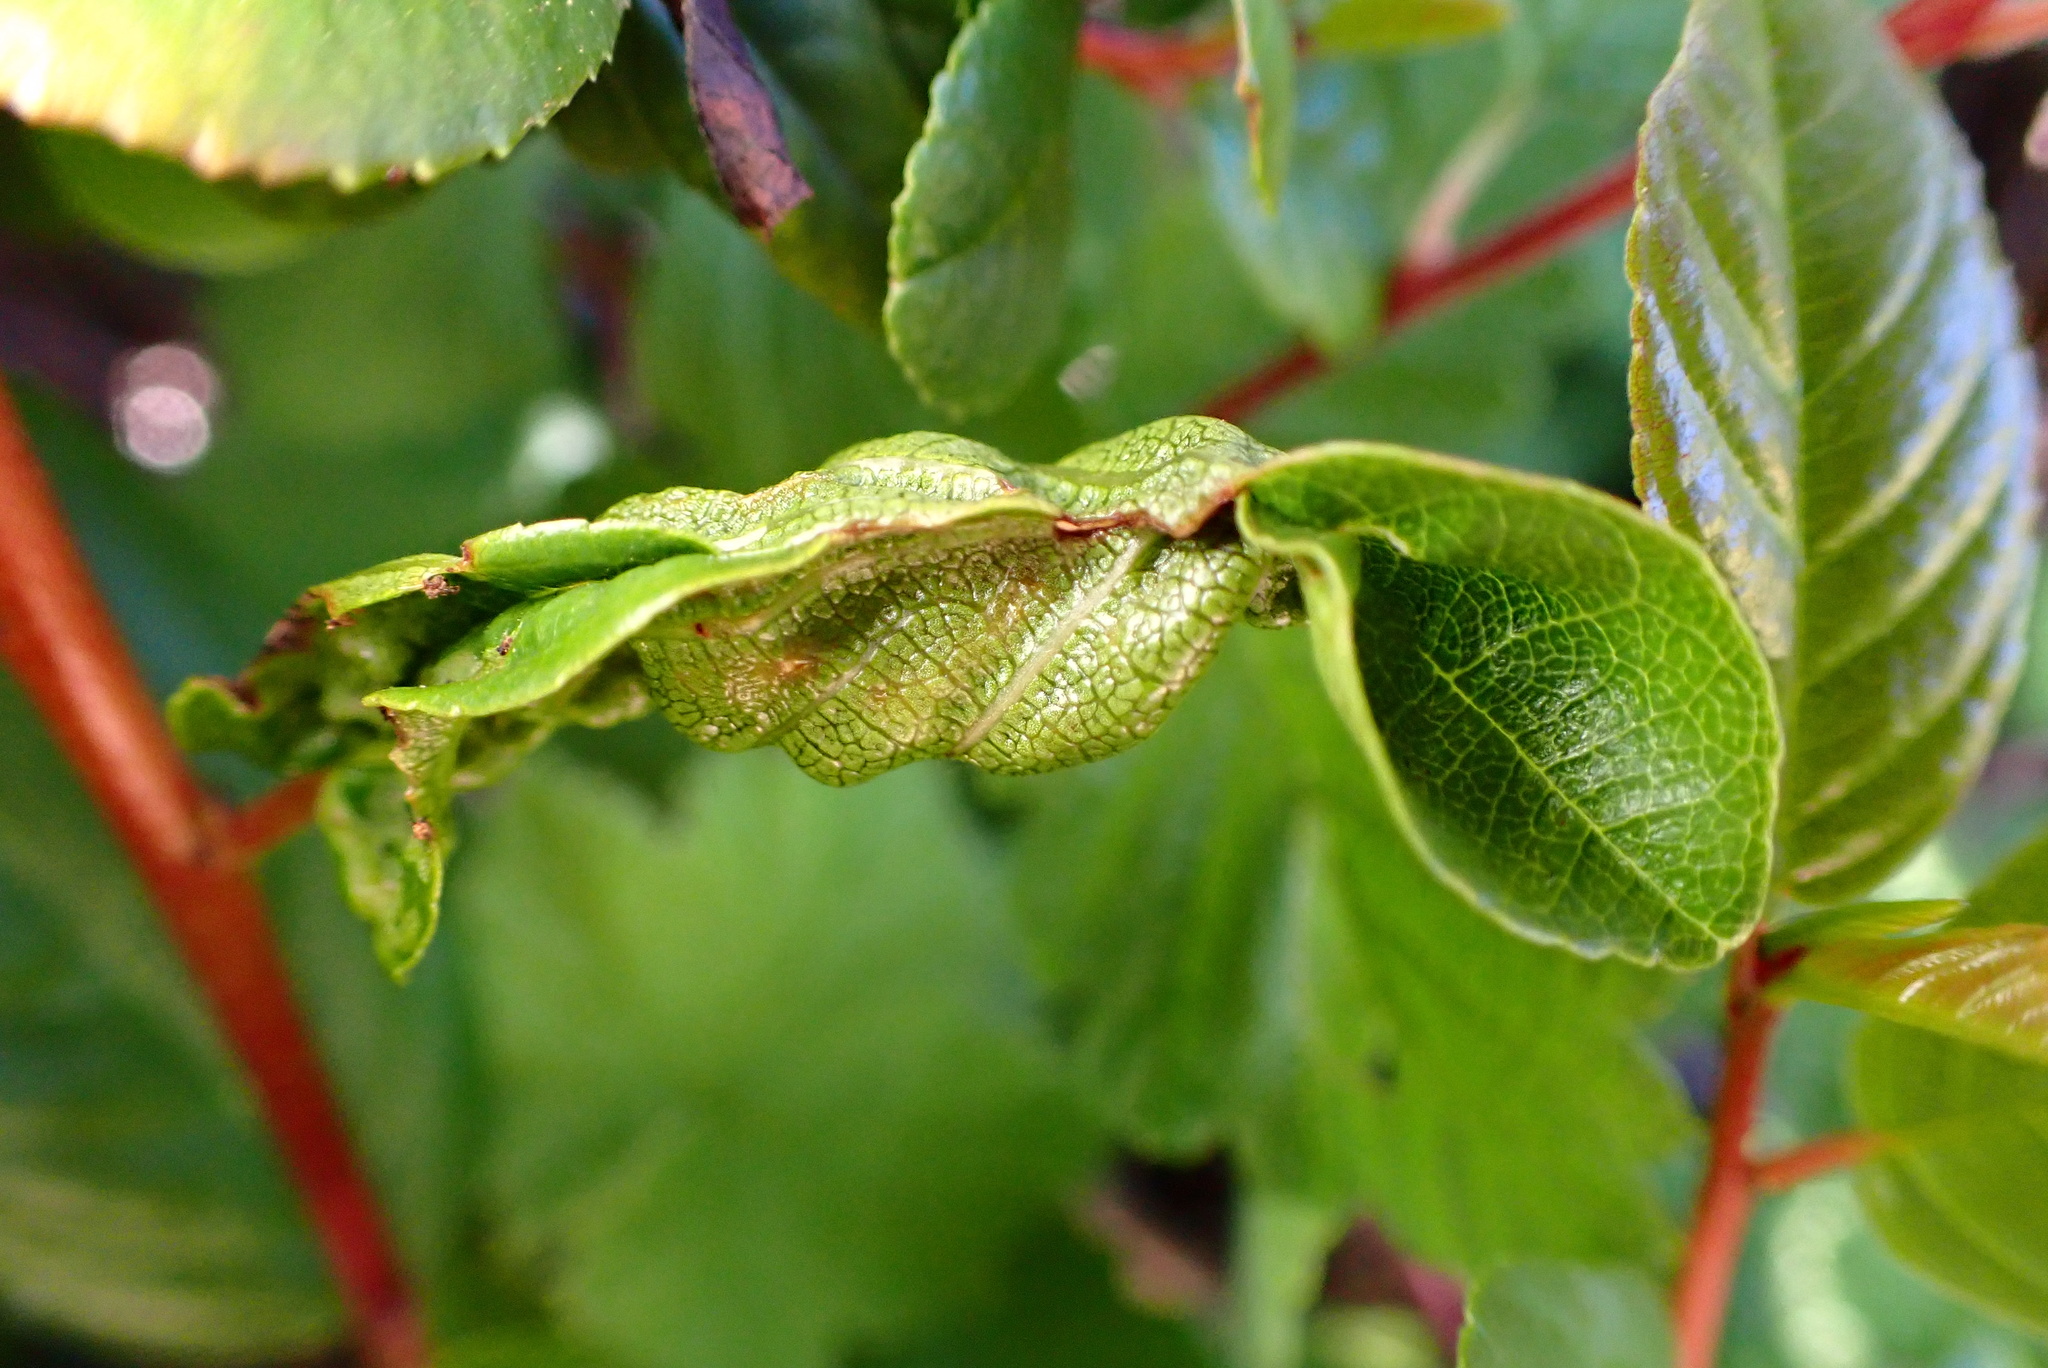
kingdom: Animalia
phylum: Arthropoda
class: Insecta
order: Lepidoptera
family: Cosmopterigidae
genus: Sorhagenia
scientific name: Sorhagenia nimbosus
